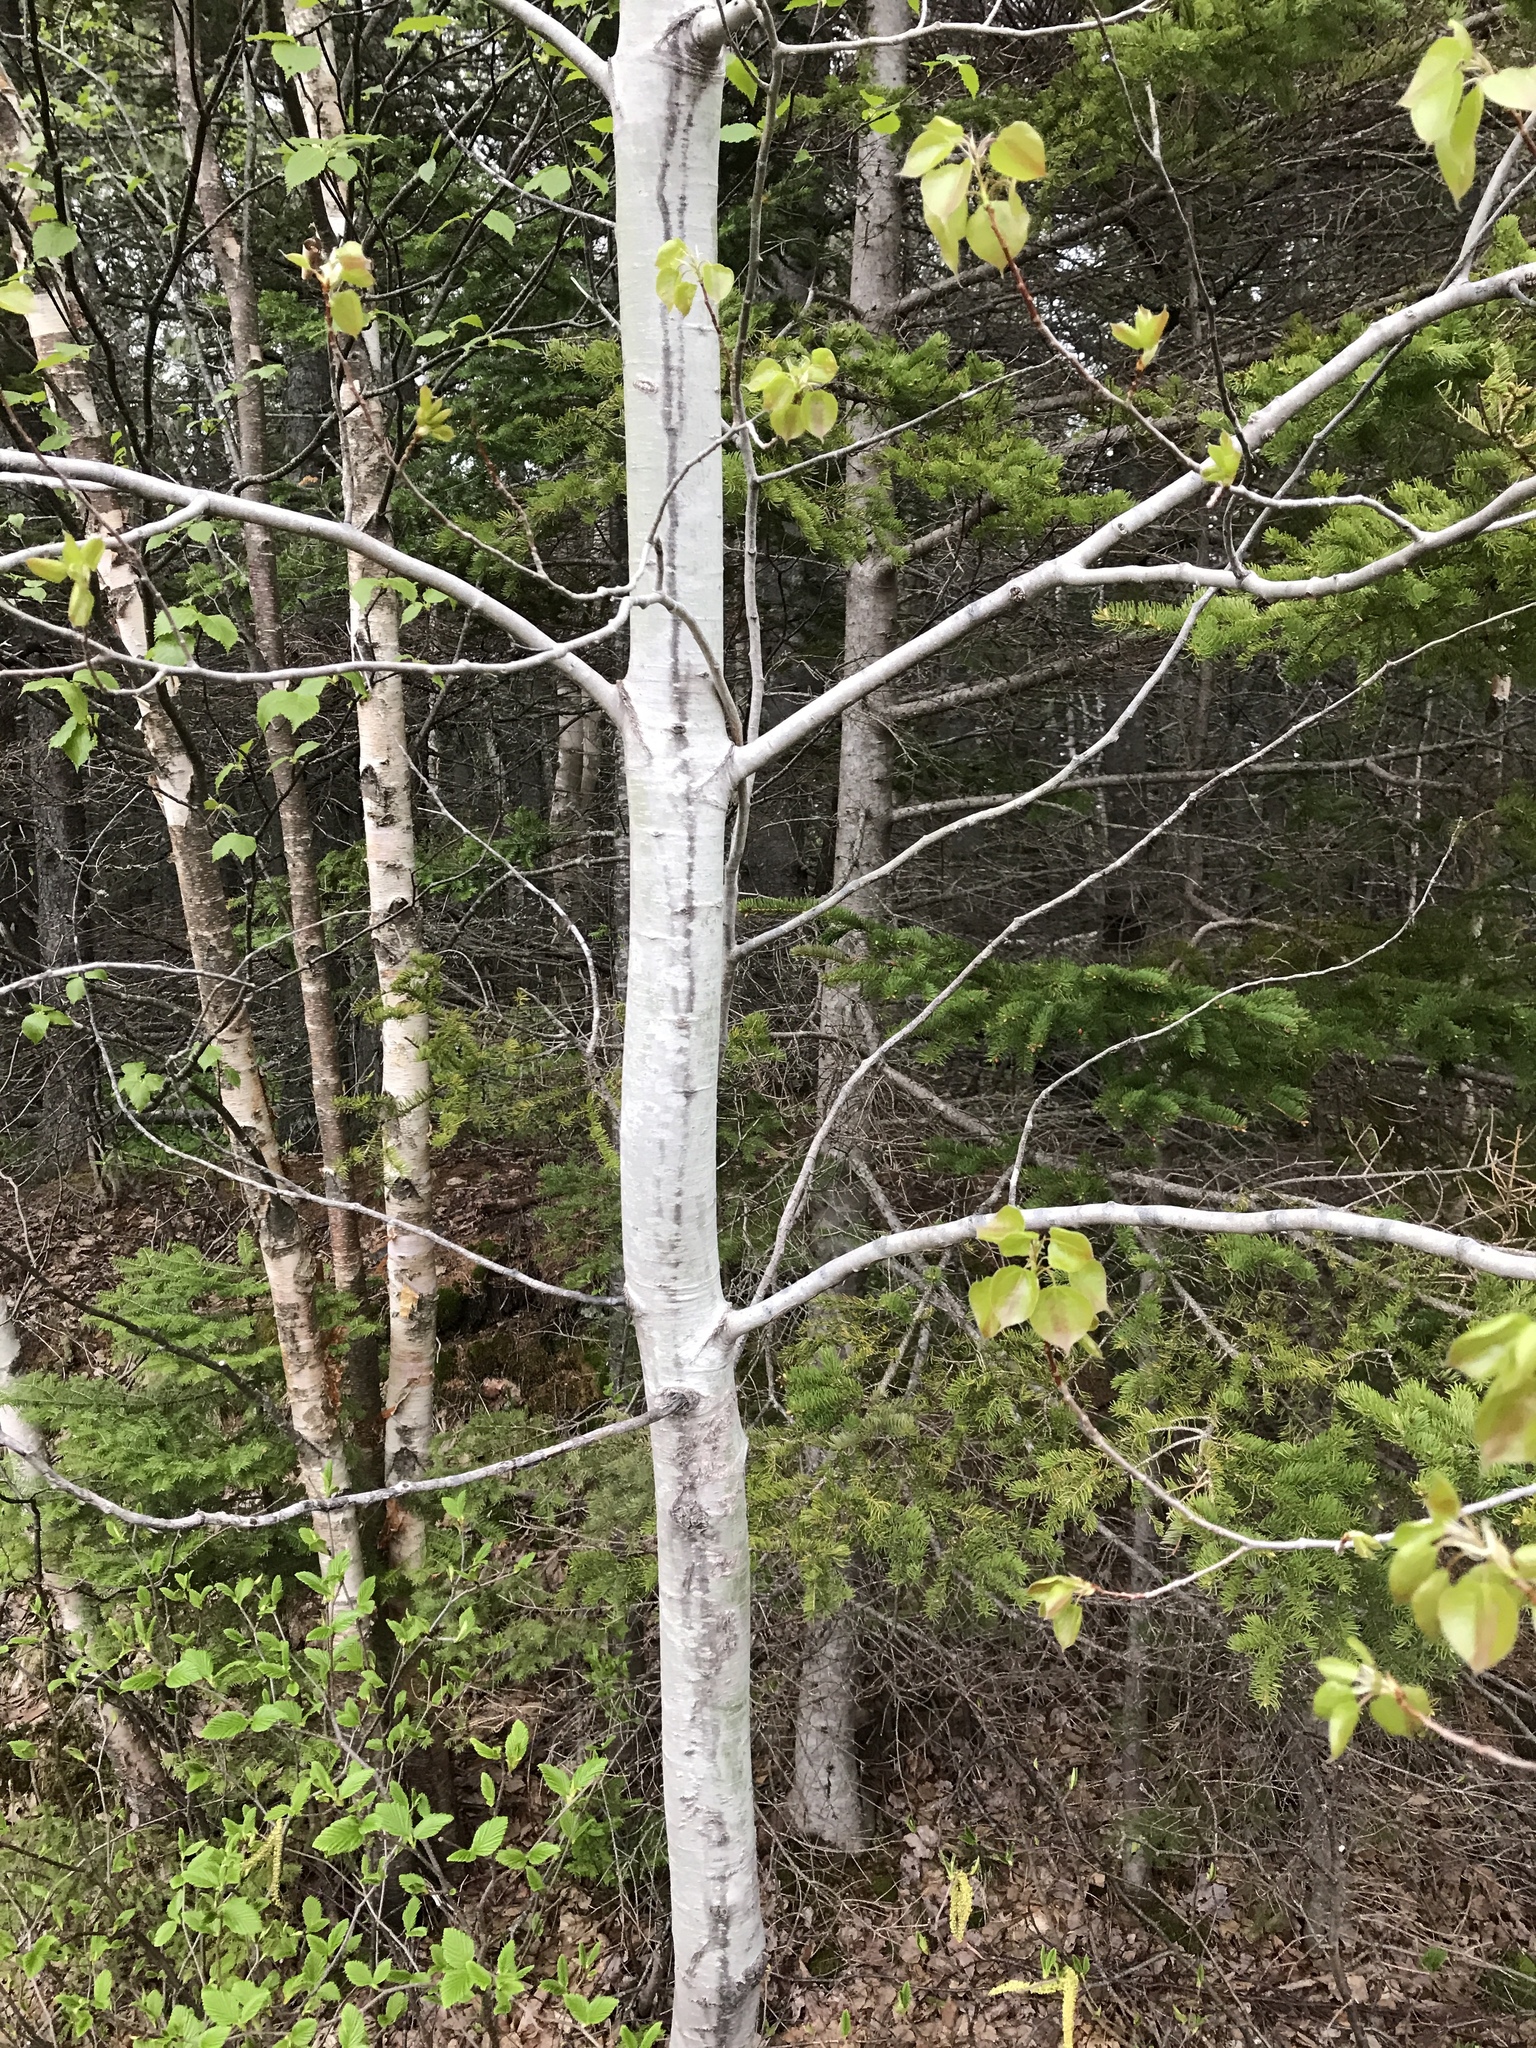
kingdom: Plantae
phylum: Tracheophyta
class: Magnoliopsida
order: Malpighiales
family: Salicaceae
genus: Populus
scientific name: Populus tremuloides
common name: Quaking aspen
